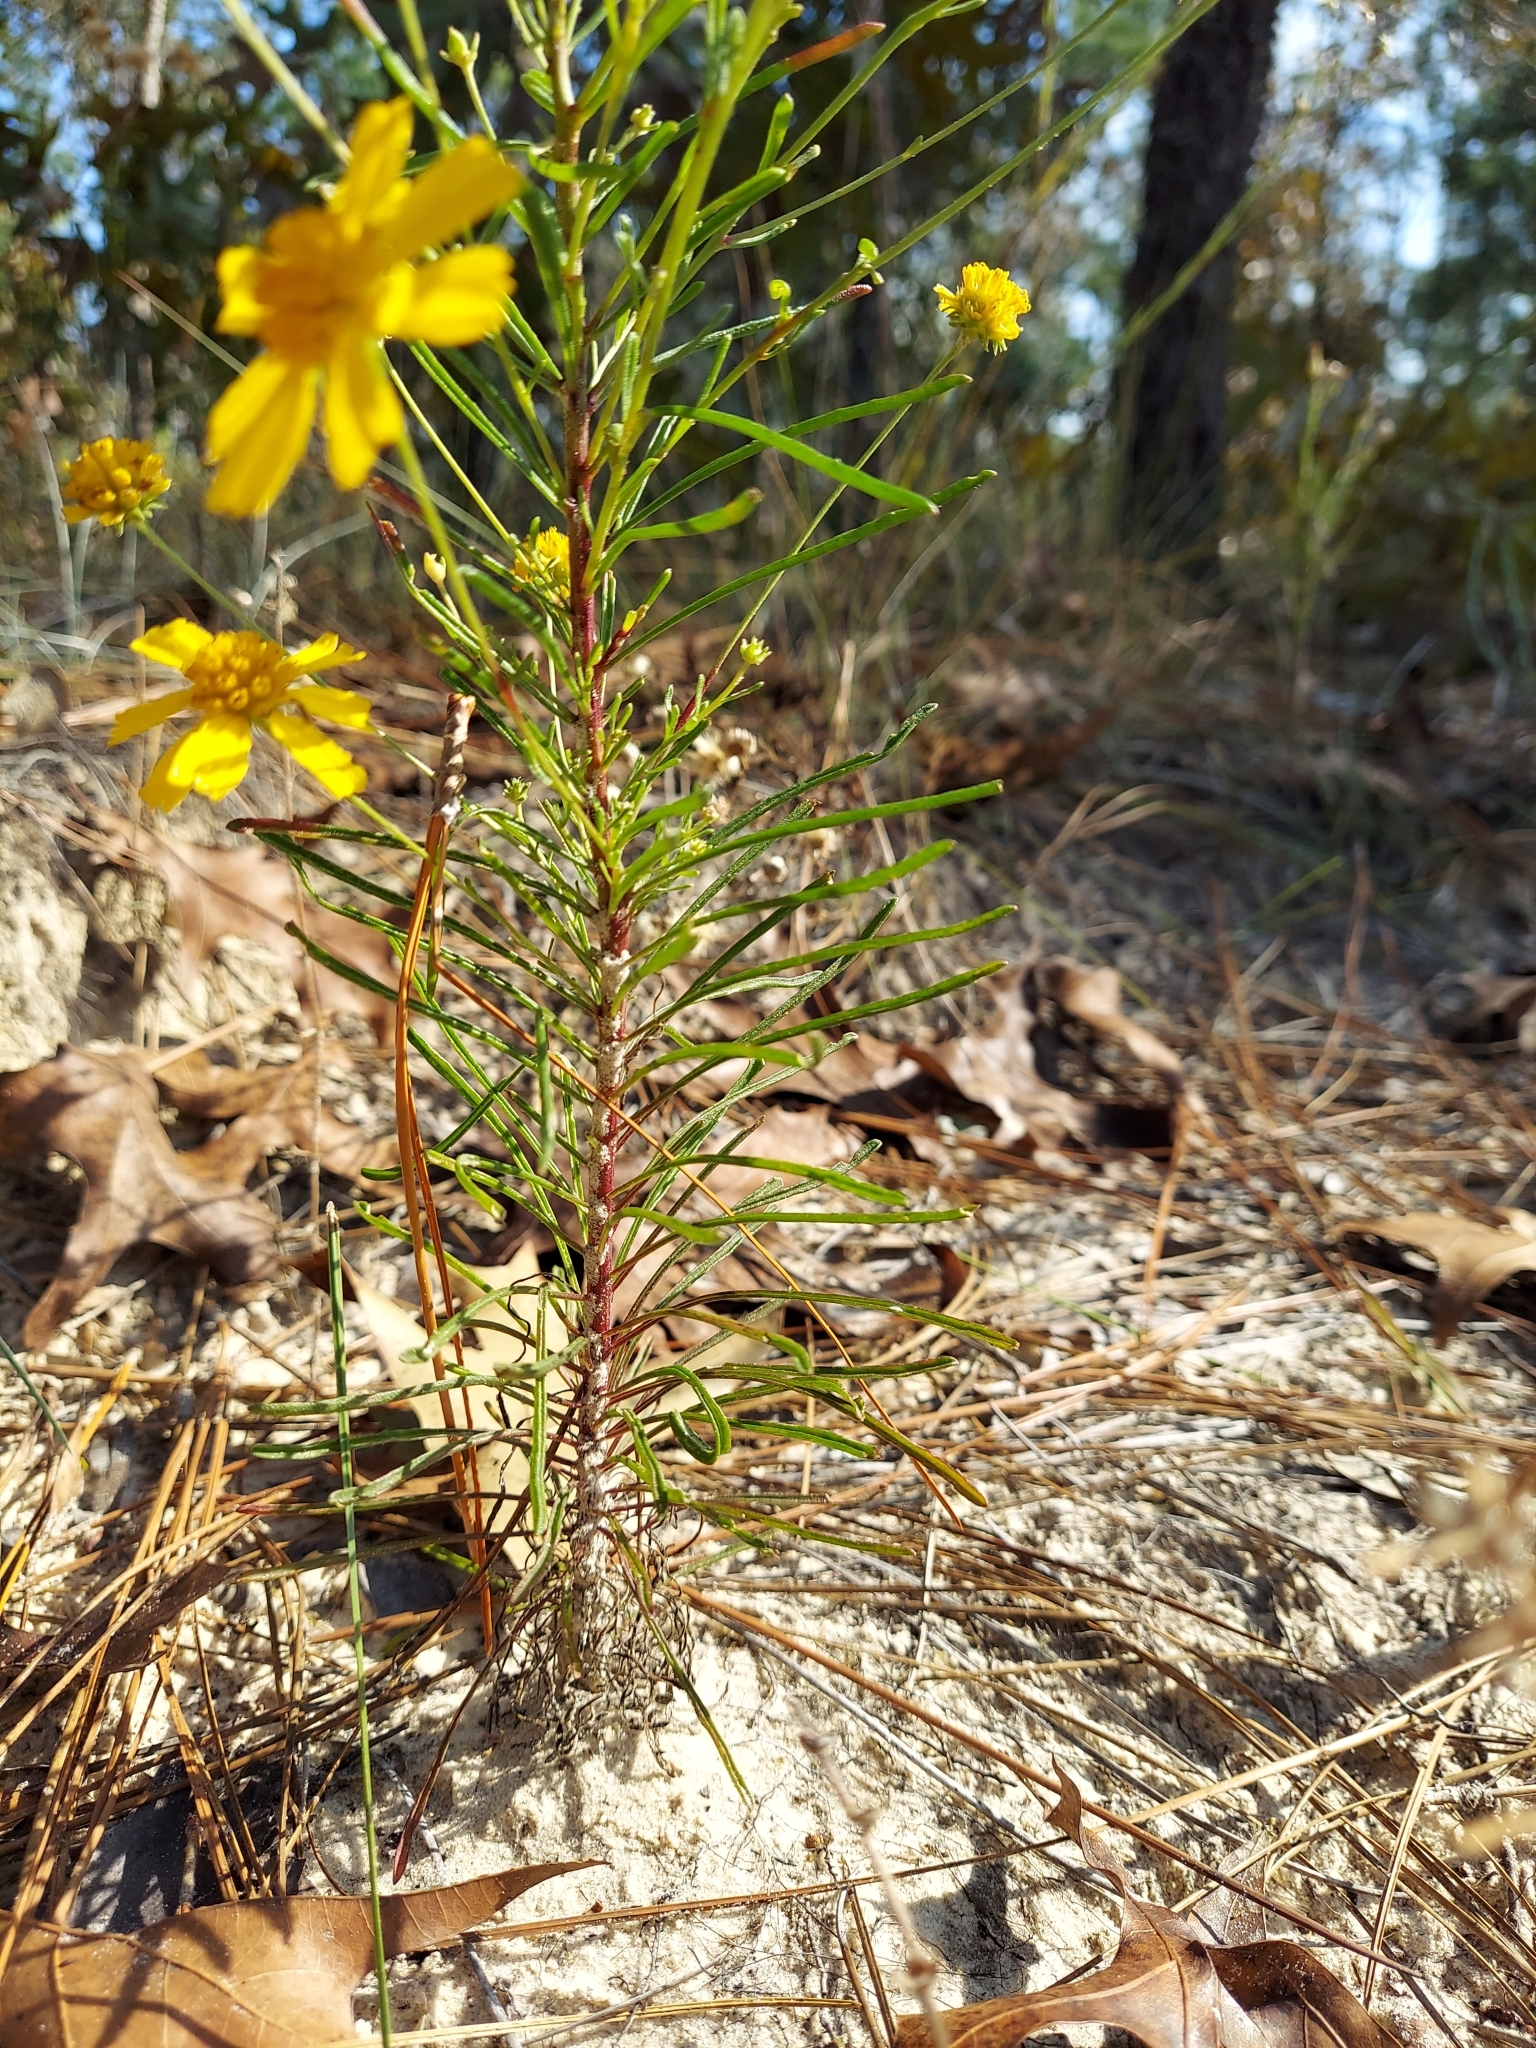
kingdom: Plantae
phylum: Tracheophyta
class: Magnoliopsida
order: Asterales
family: Asteraceae
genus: Balduina
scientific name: Balduina angustifolia
